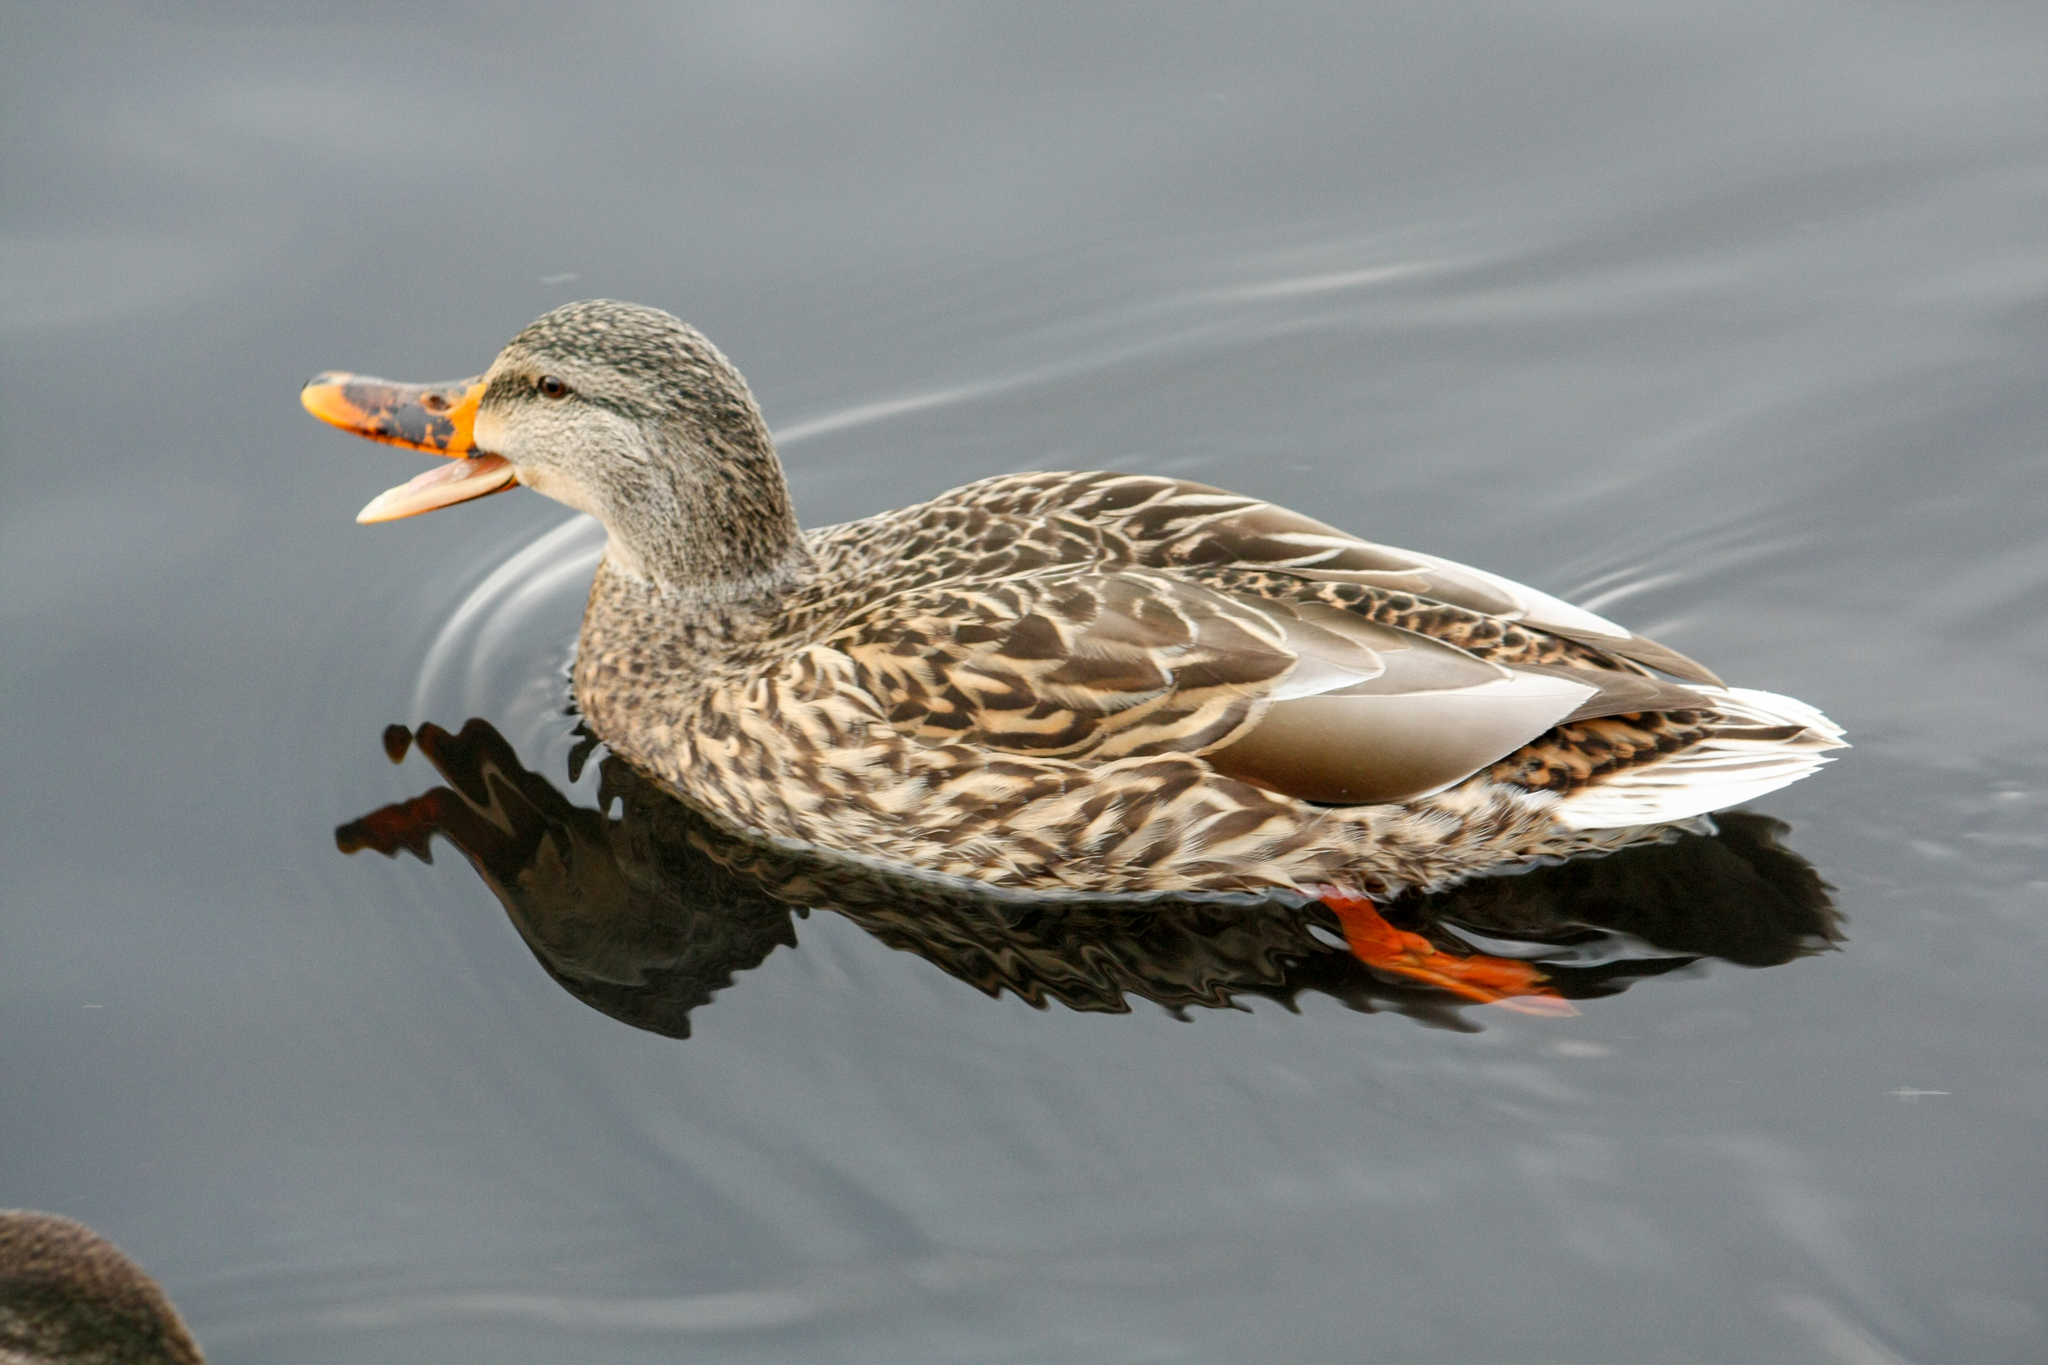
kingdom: Animalia
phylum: Chordata
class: Aves
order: Anseriformes
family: Anatidae
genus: Anas
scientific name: Anas platyrhynchos
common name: Mallard
